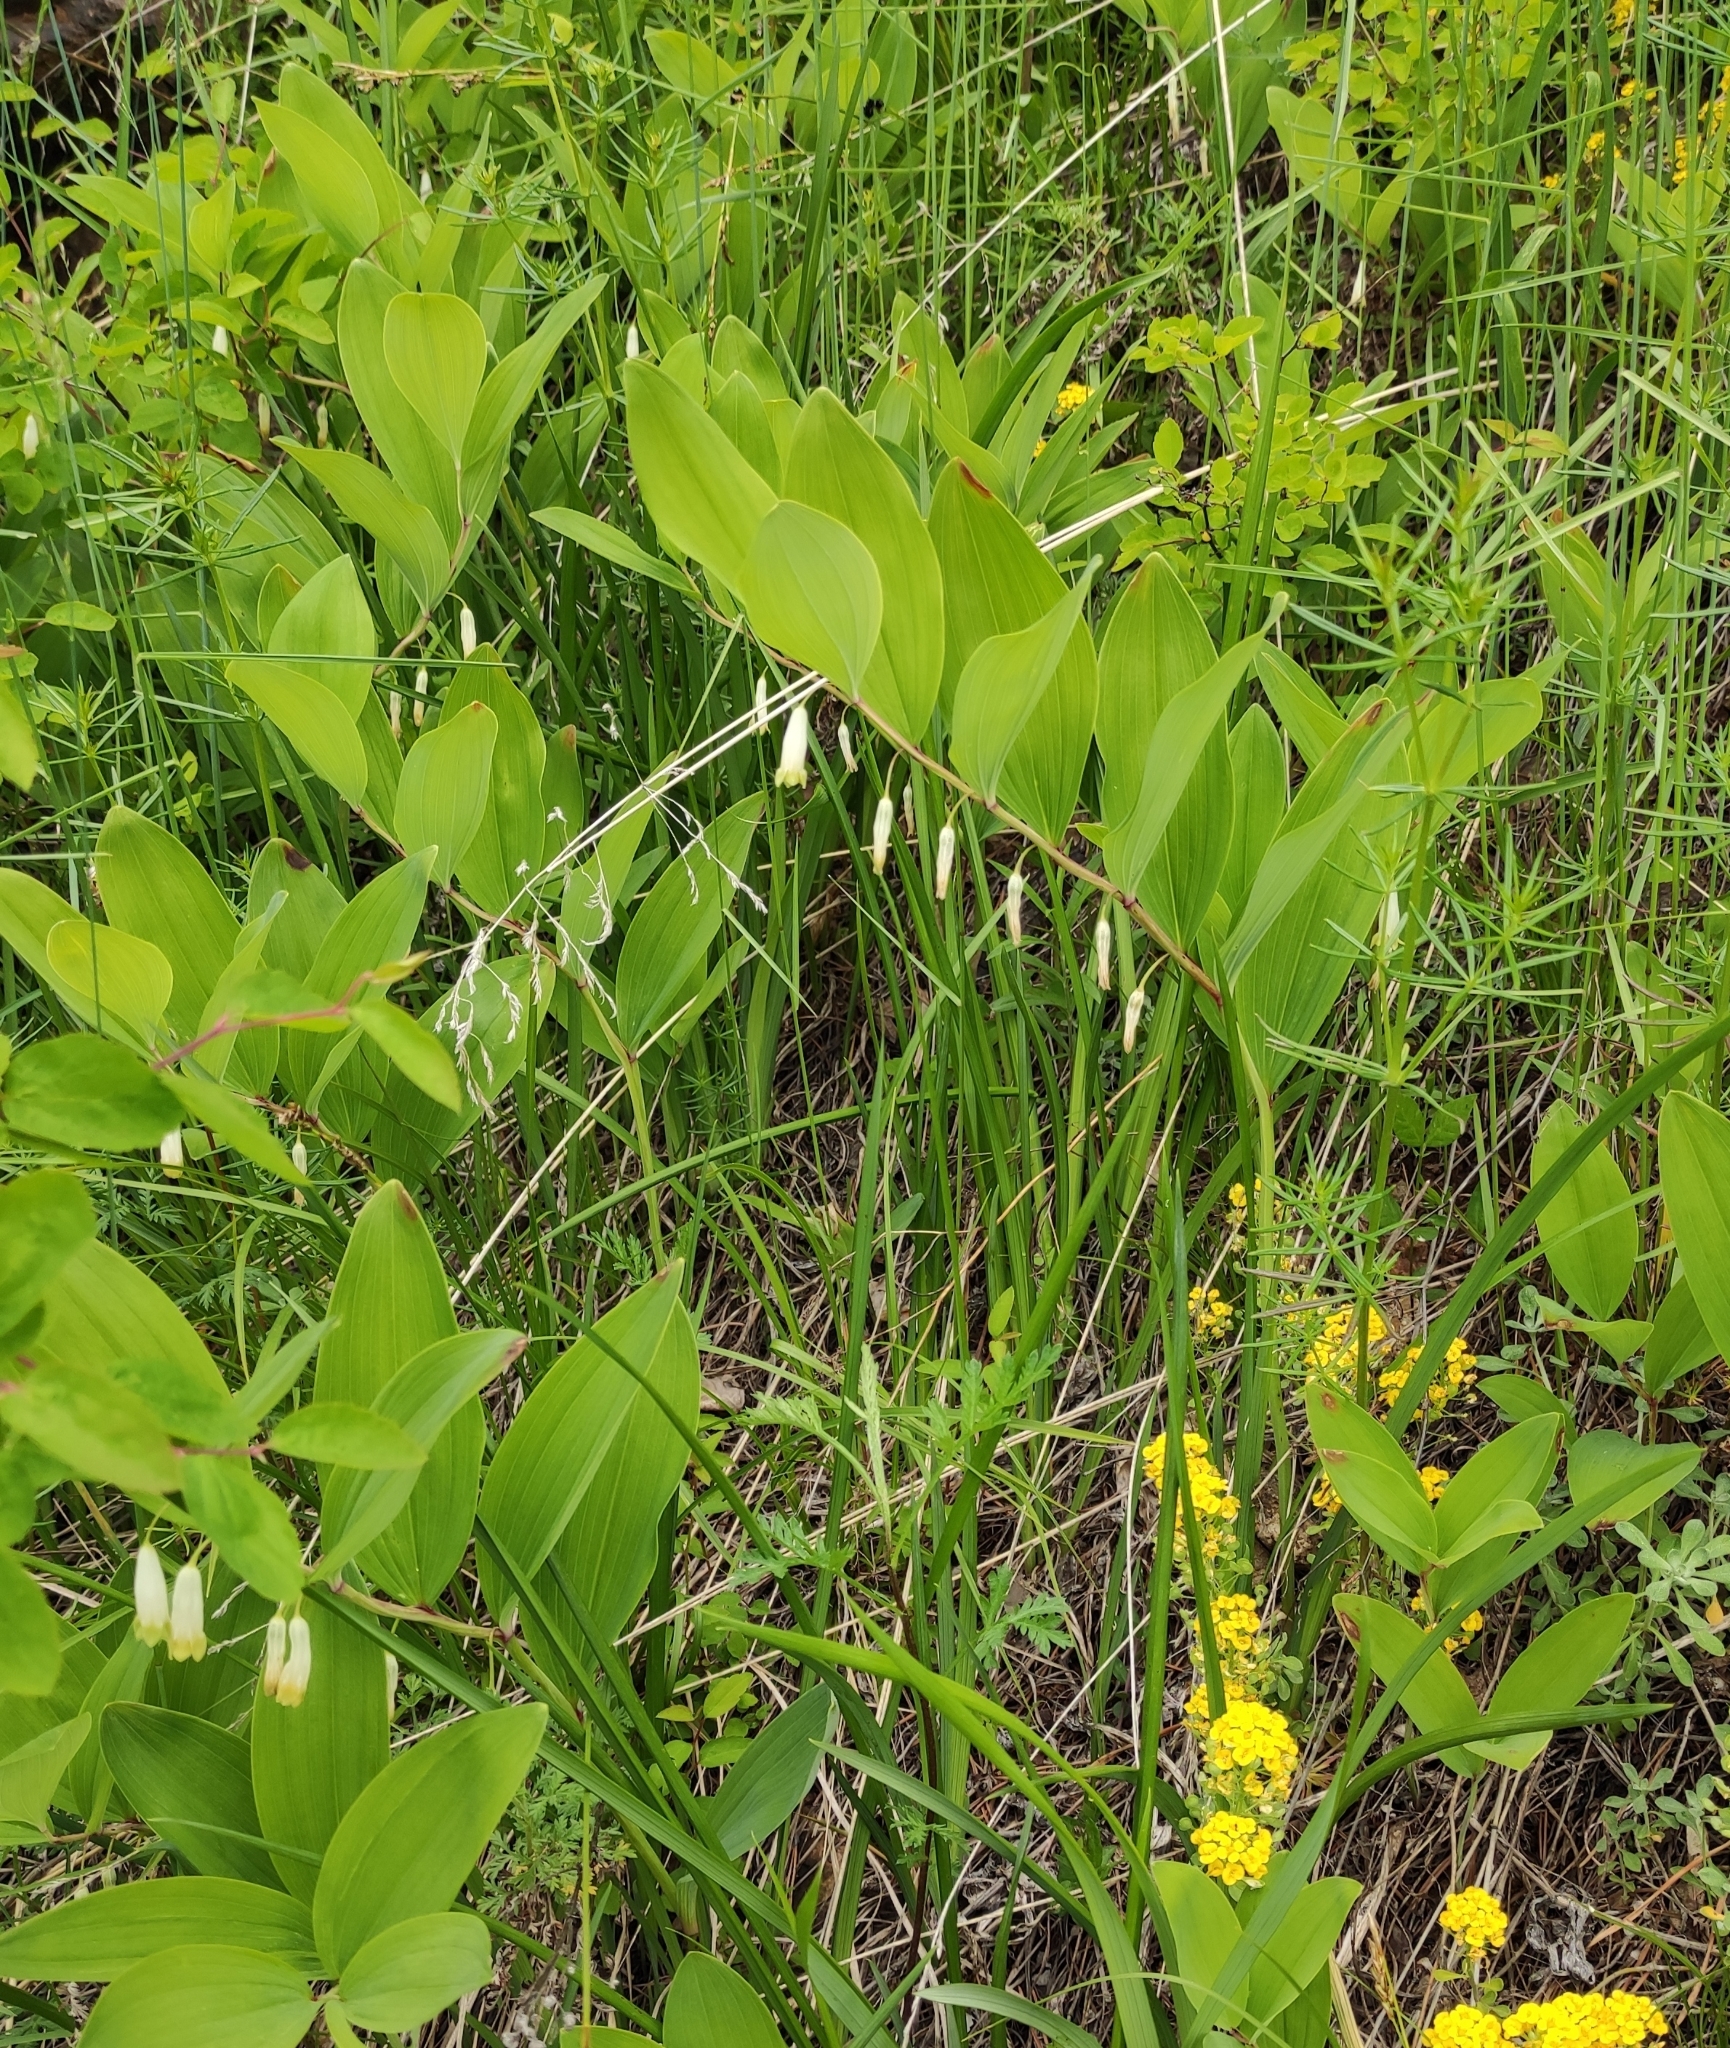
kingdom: Plantae
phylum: Tracheophyta
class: Liliopsida
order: Asparagales
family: Asparagaceae
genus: Polygonatum
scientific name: Polygonatum odoratum
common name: Angular solomon's-seal
